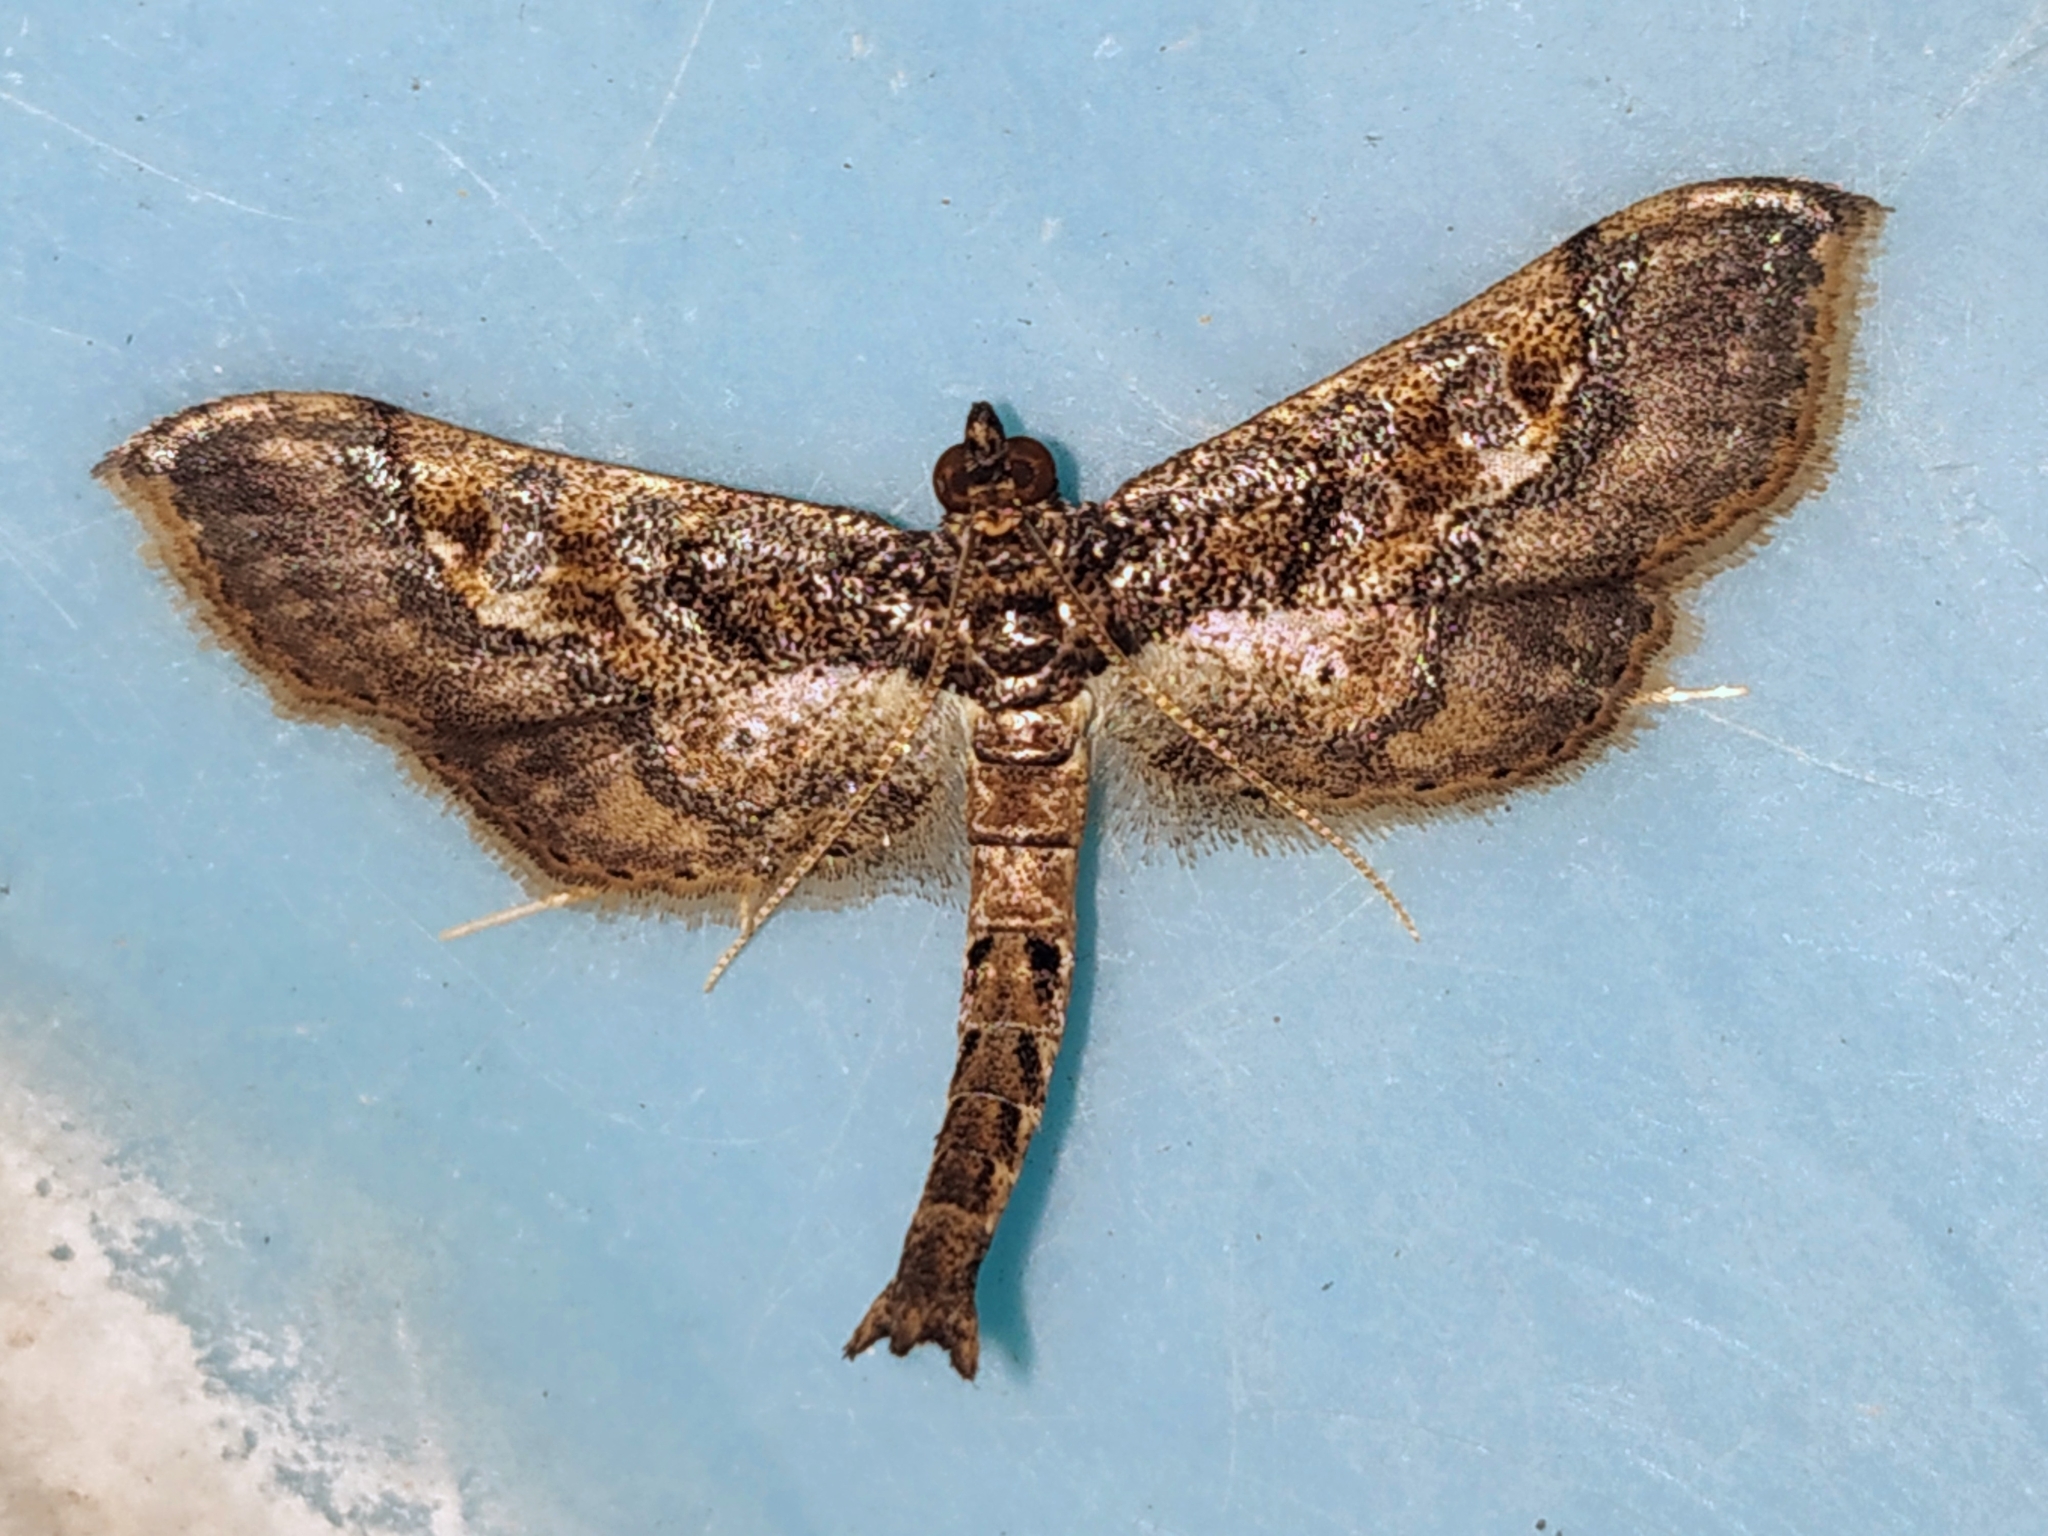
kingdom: Animalia
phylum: Arthropoda
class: Insecta
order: Lepidoptera
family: Crambidae
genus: Hydriris
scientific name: Hydriris ornatalis
